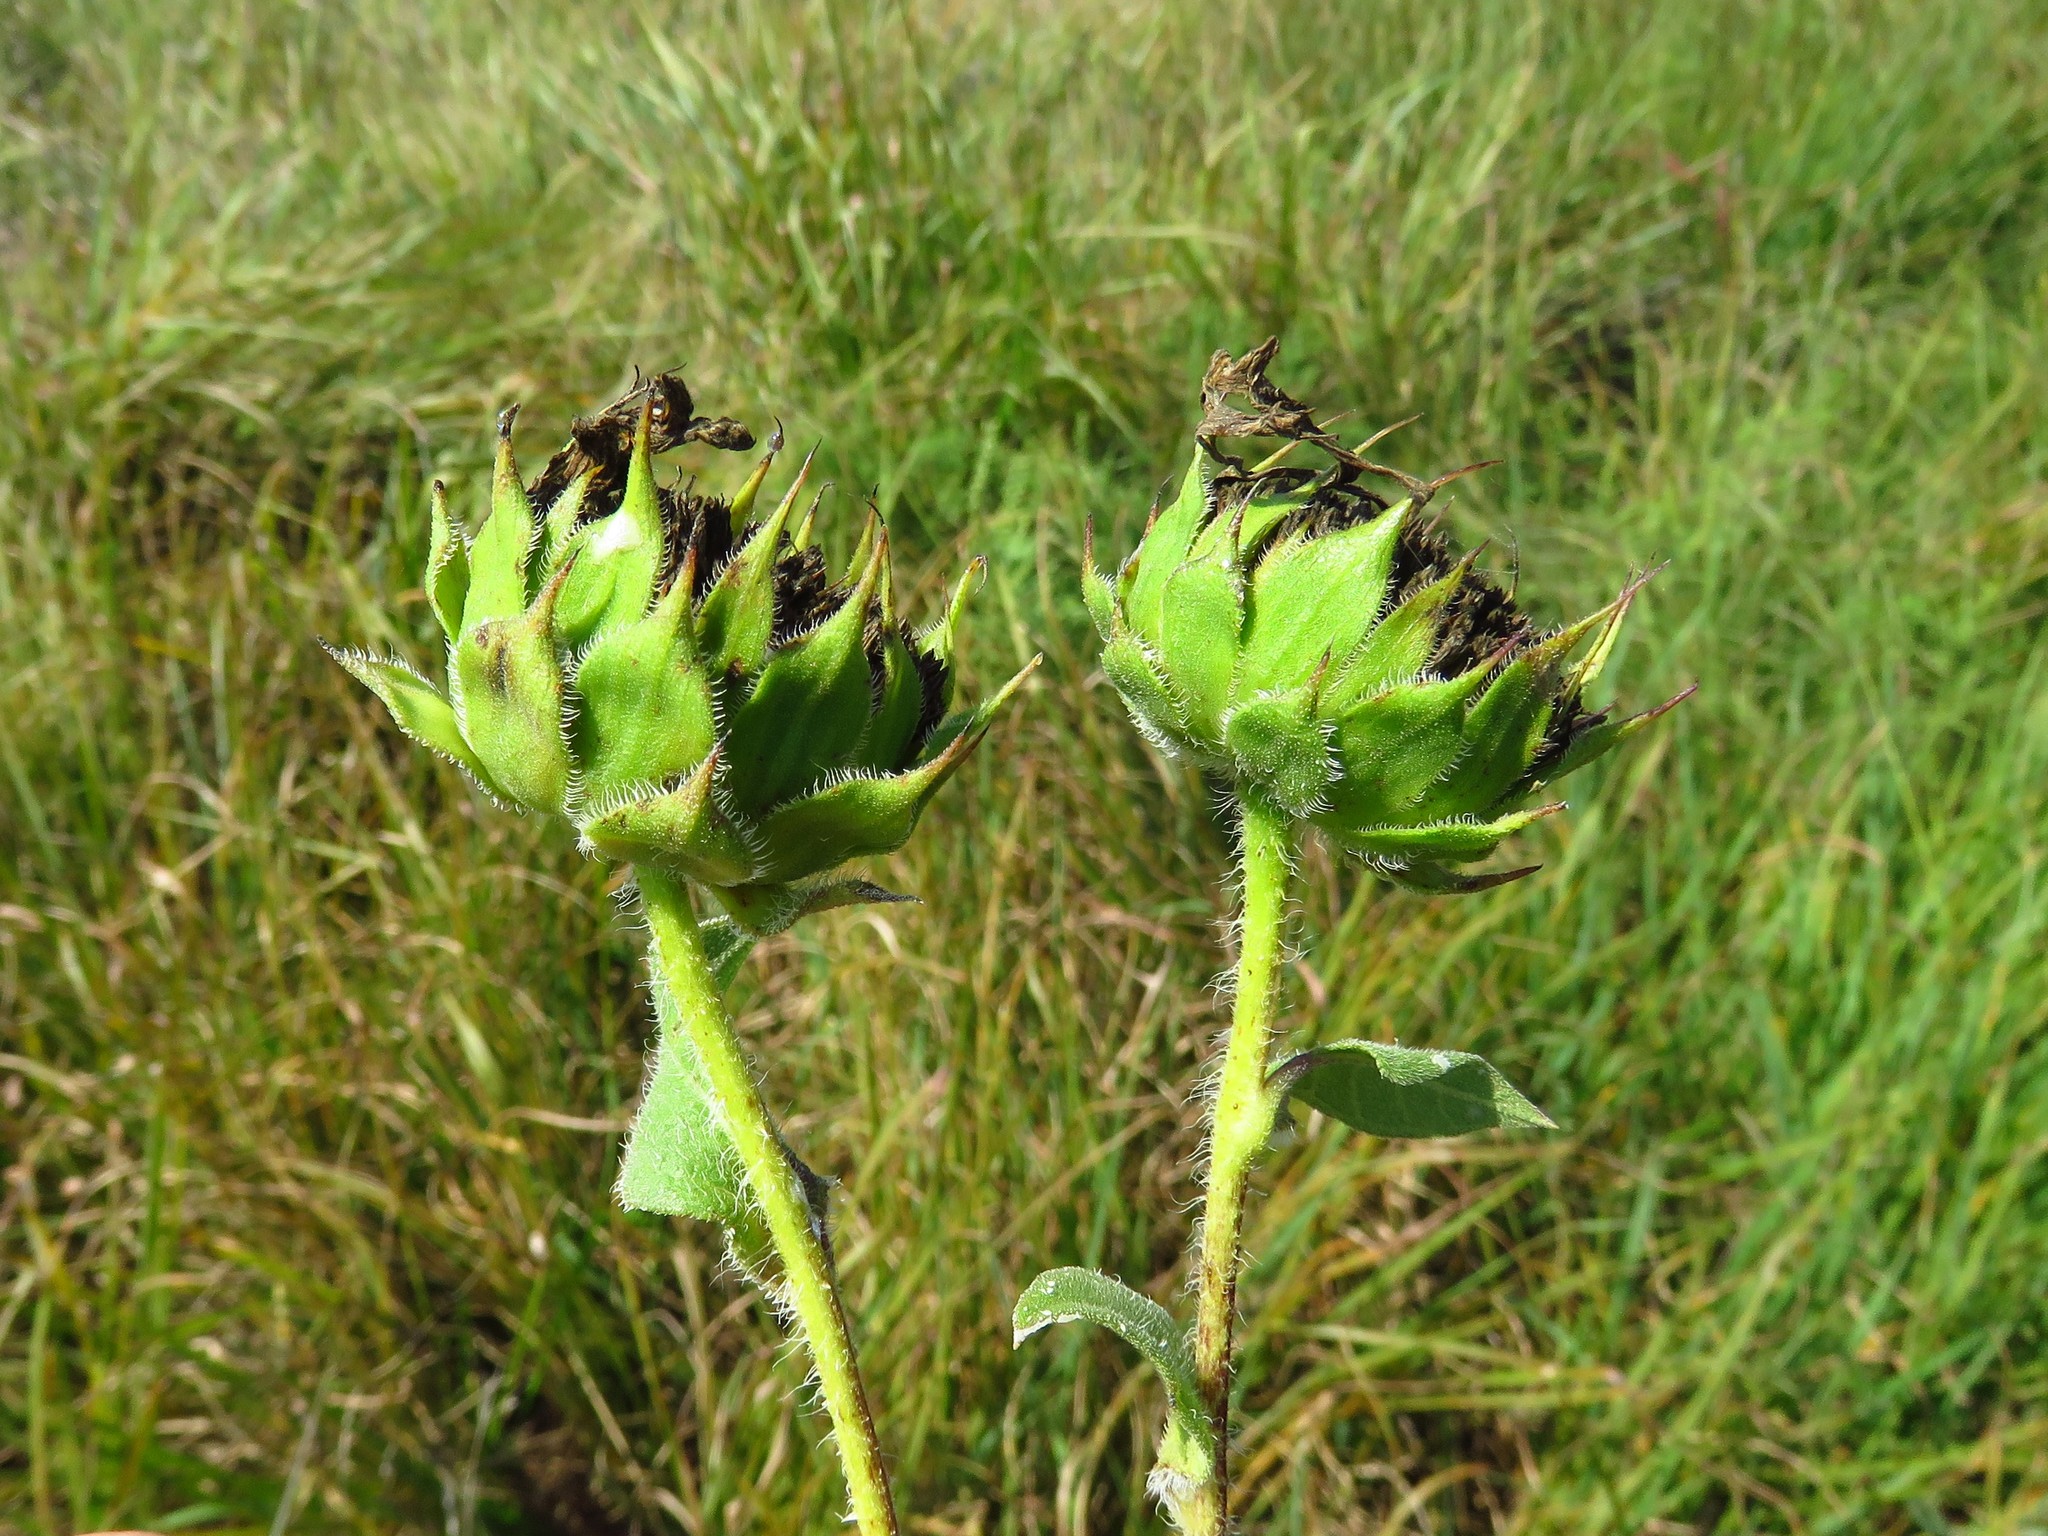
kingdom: Plantae
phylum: Tracheophyta
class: Magnoliopsida
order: Asterales
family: Asteraceae
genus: Helianthus
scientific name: Helianthus annuus
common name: Sunflower
